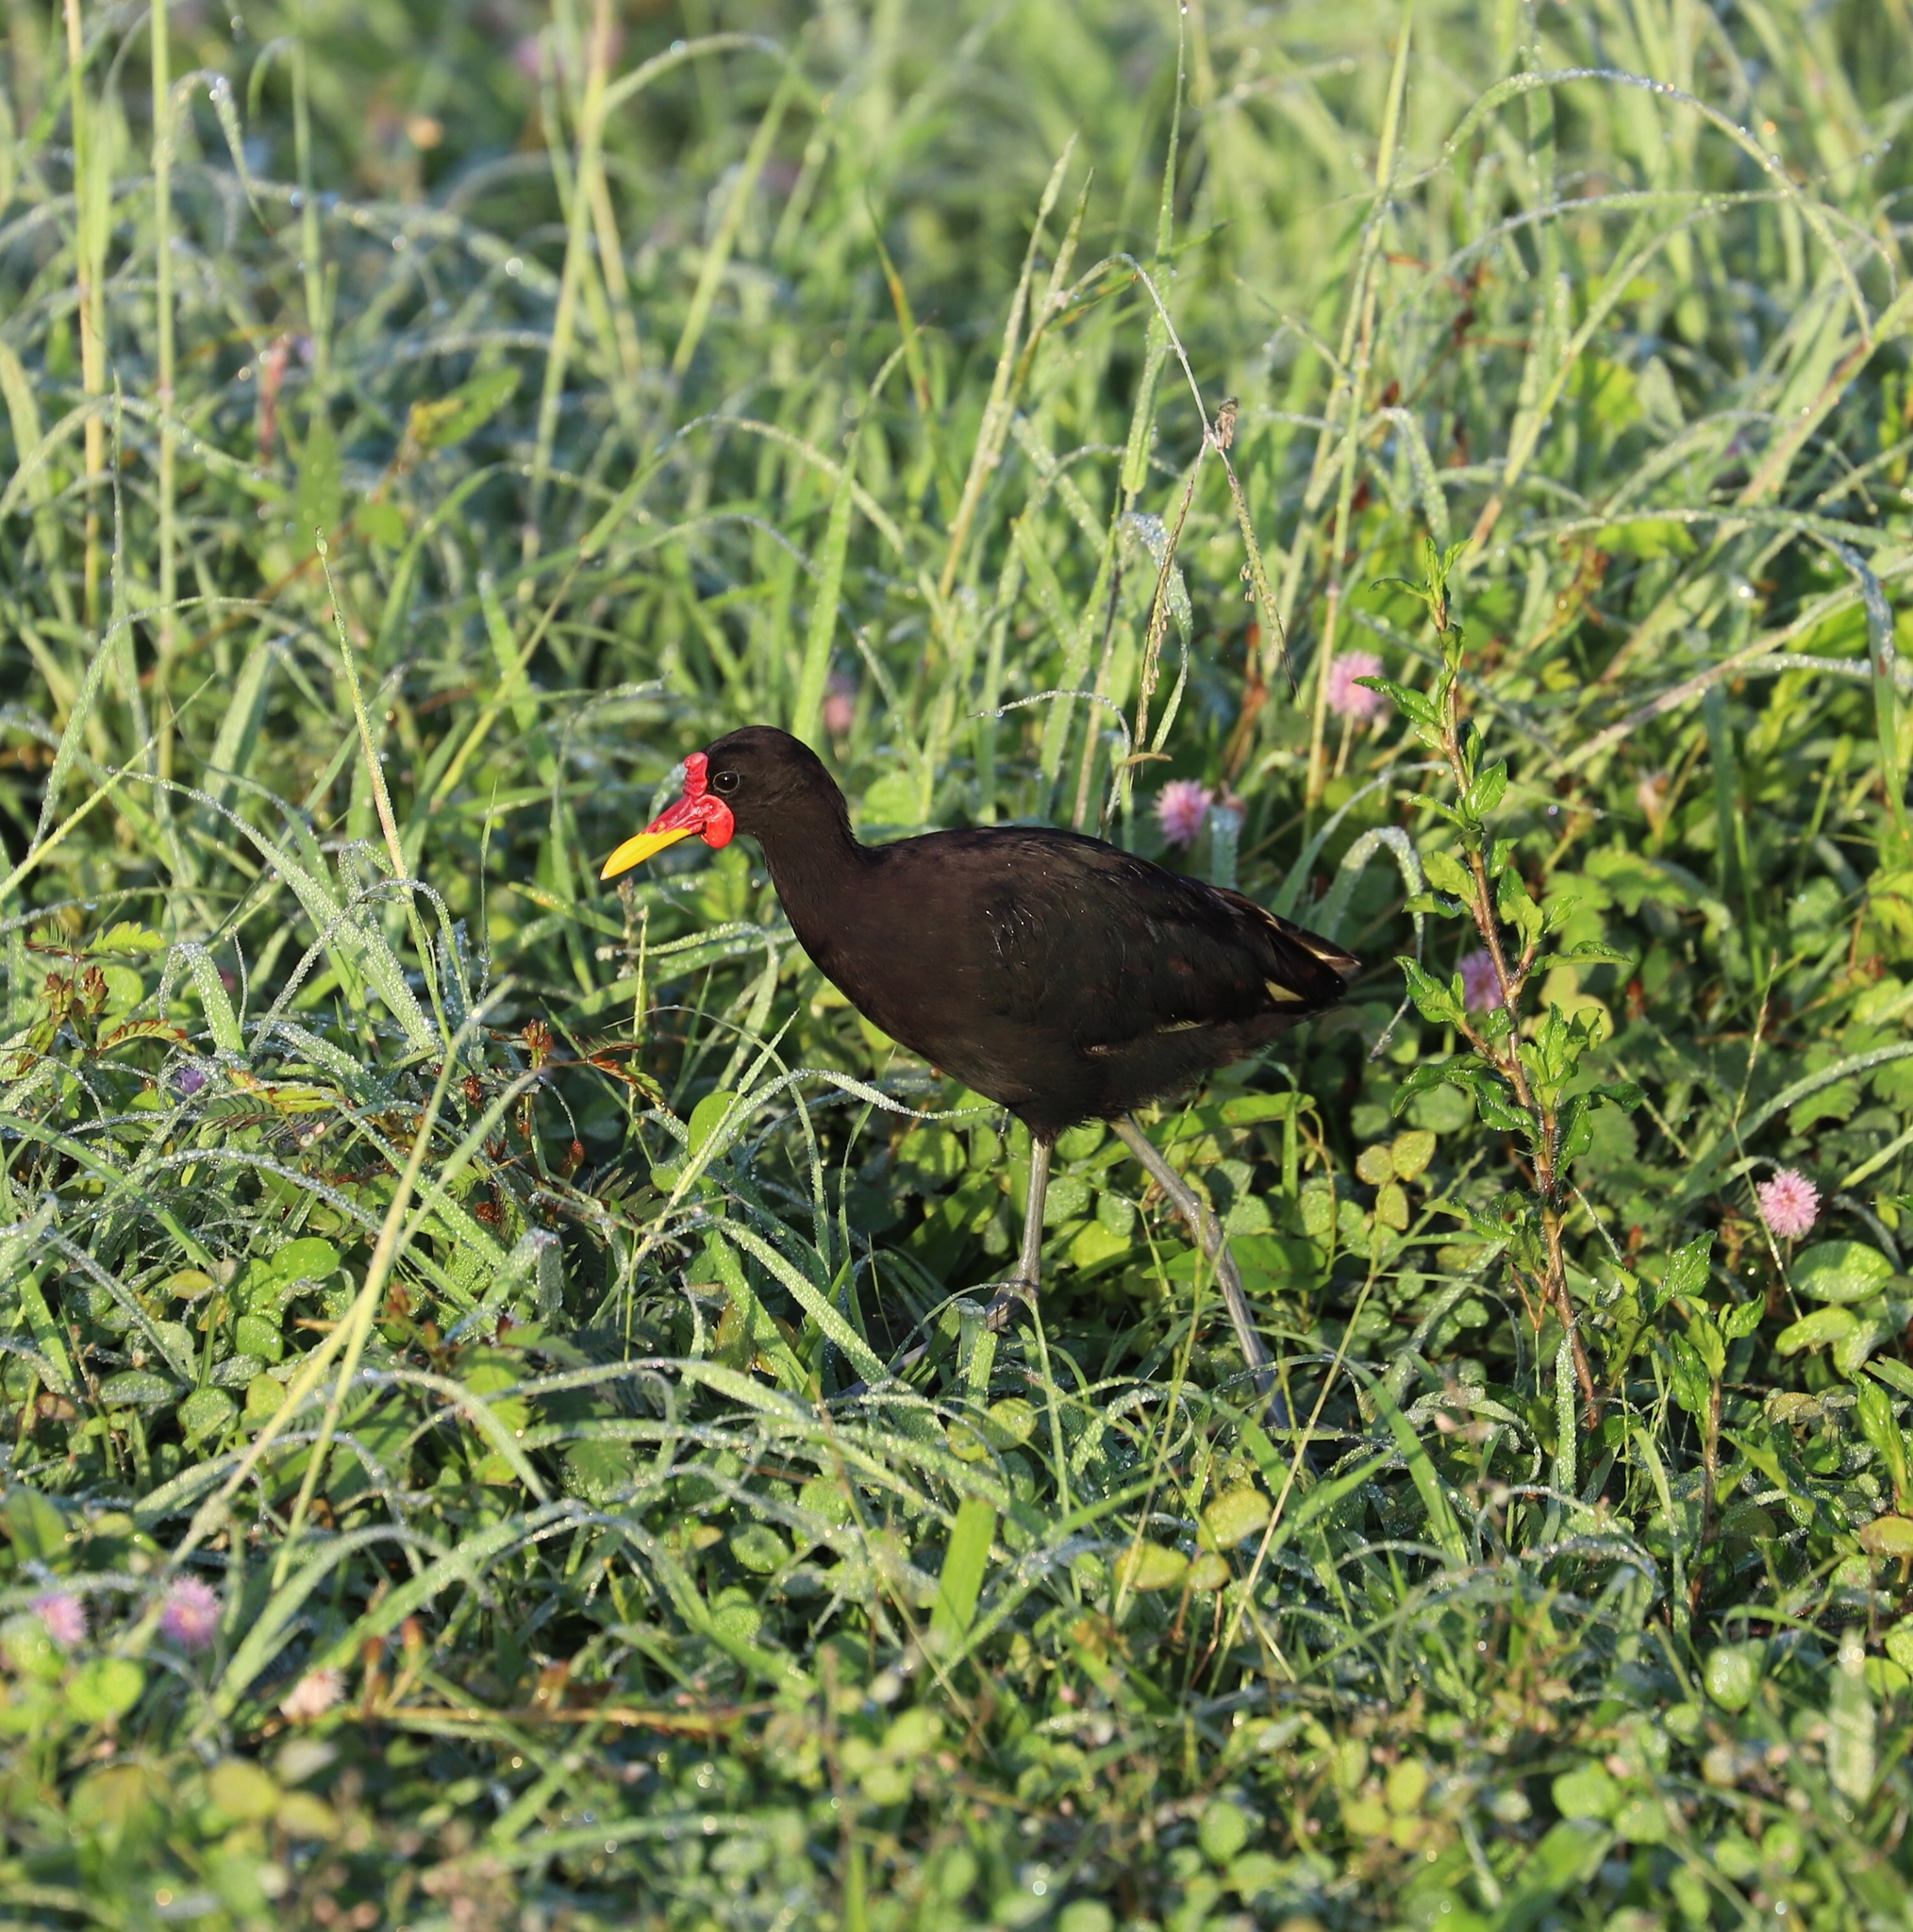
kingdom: Animalia
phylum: Chordata
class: Aves
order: Charadriiformes
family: Jacanidae
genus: Jacana
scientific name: Jacana jacana
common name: Wattled jacana
